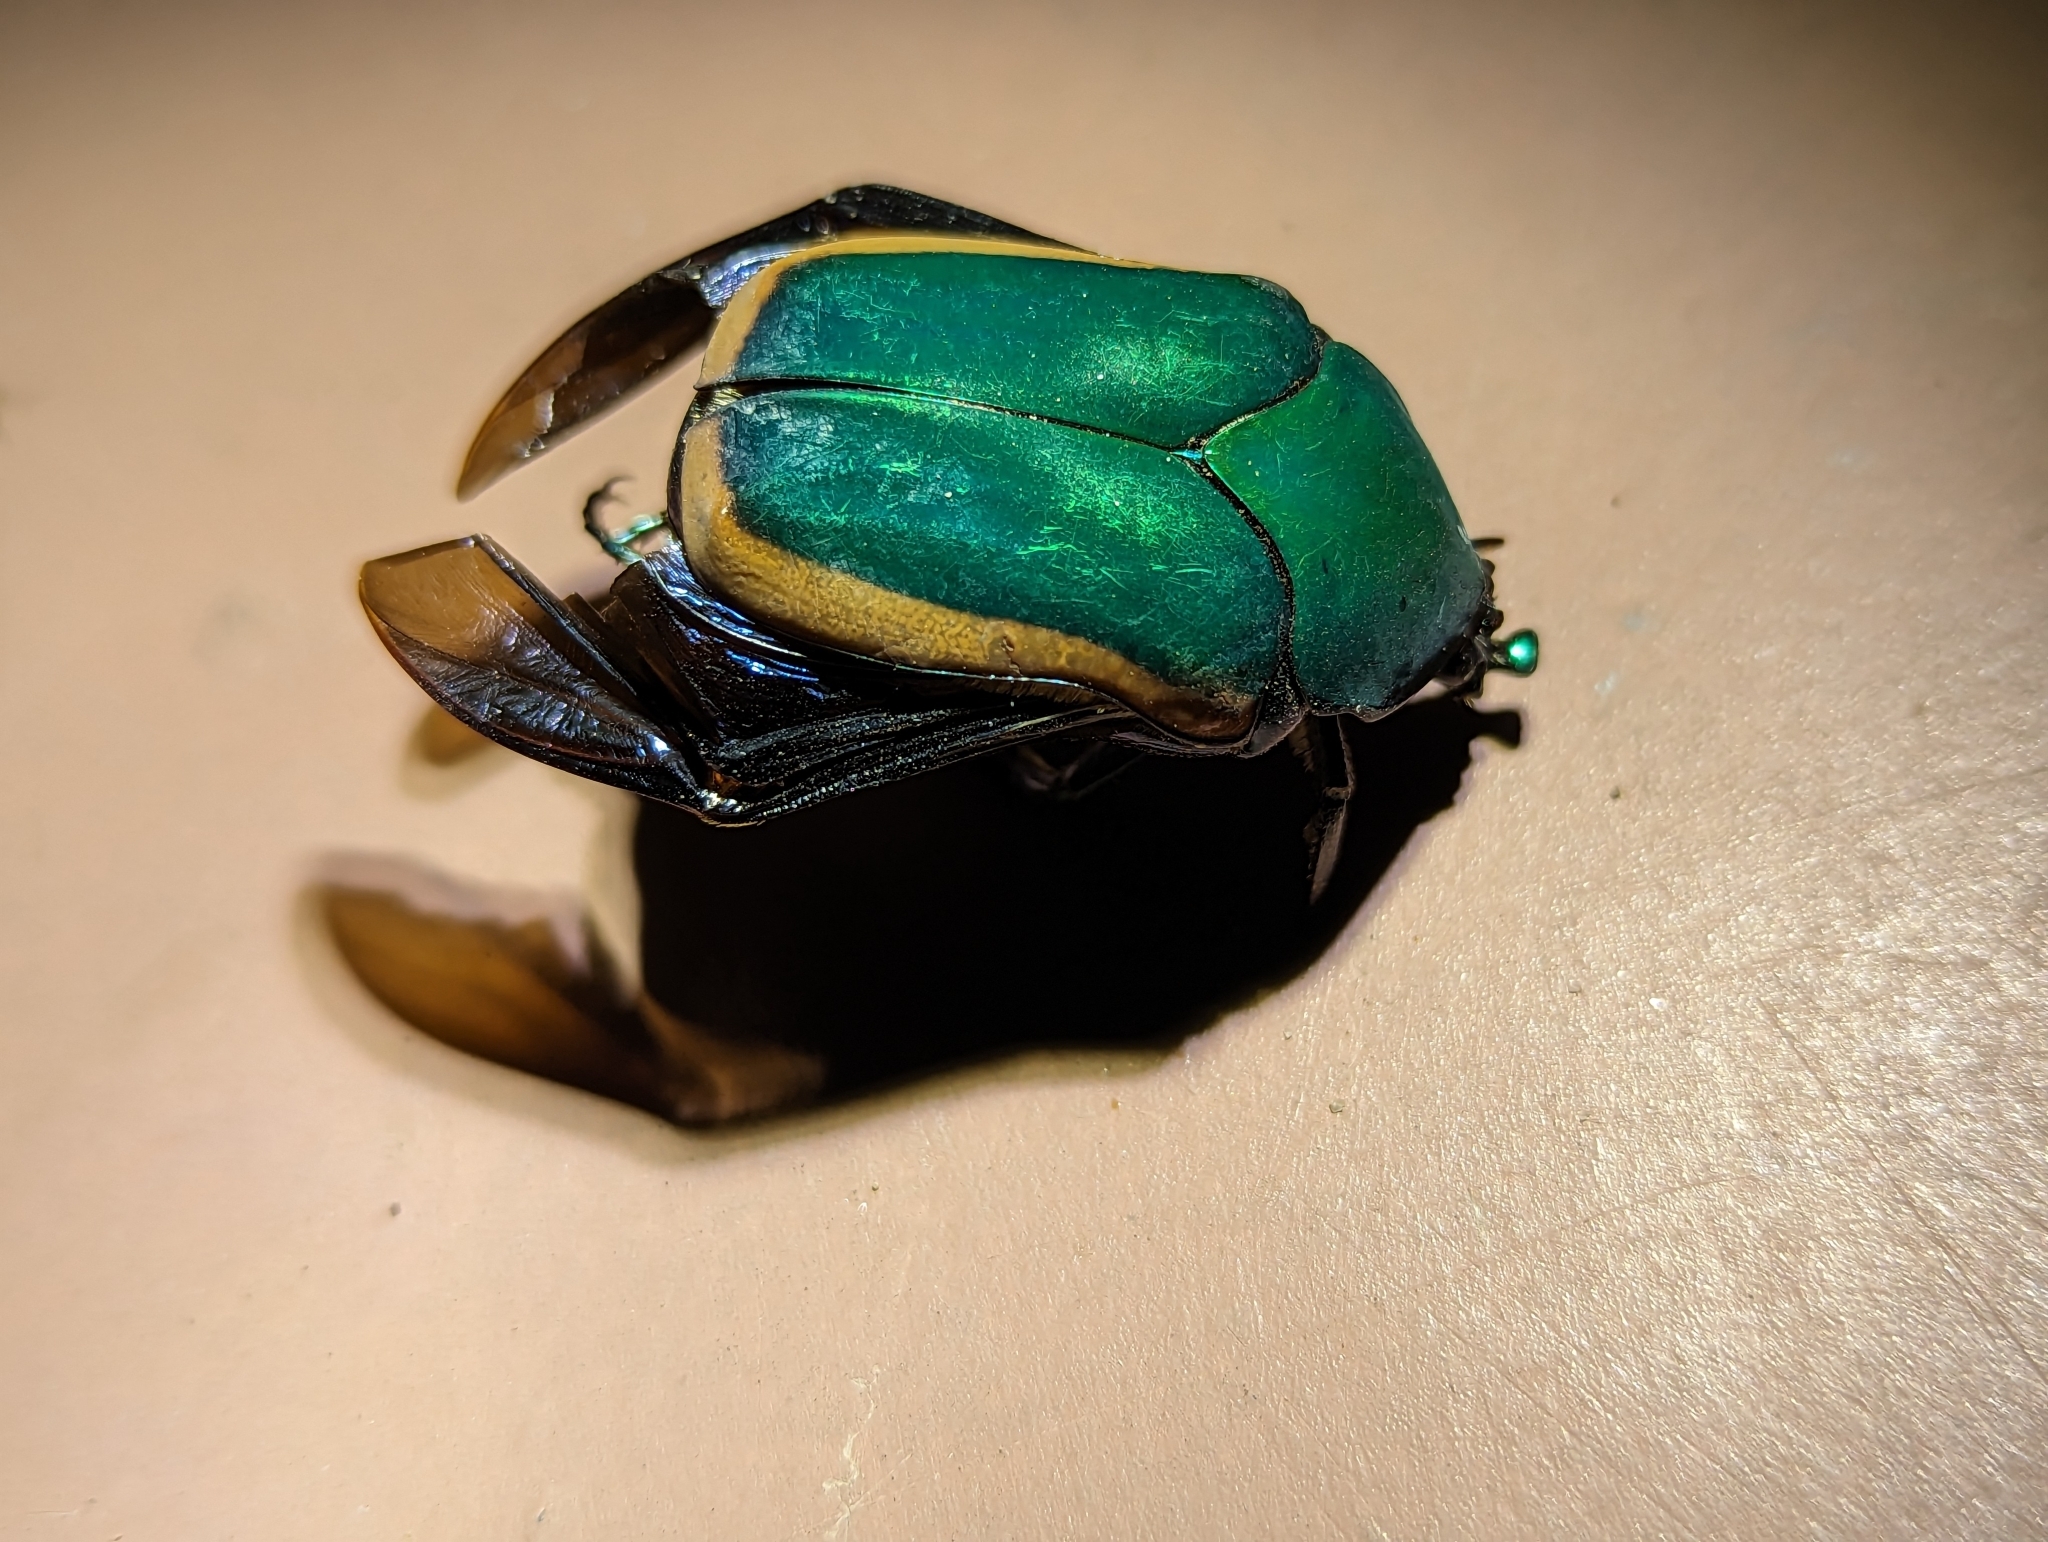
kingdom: Animalia
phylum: Arthropoda
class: Insecta
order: Coleoptera
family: Scarabaeidae
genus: Cotinis
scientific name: Cotinis mutabilis
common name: Figeater beetle
